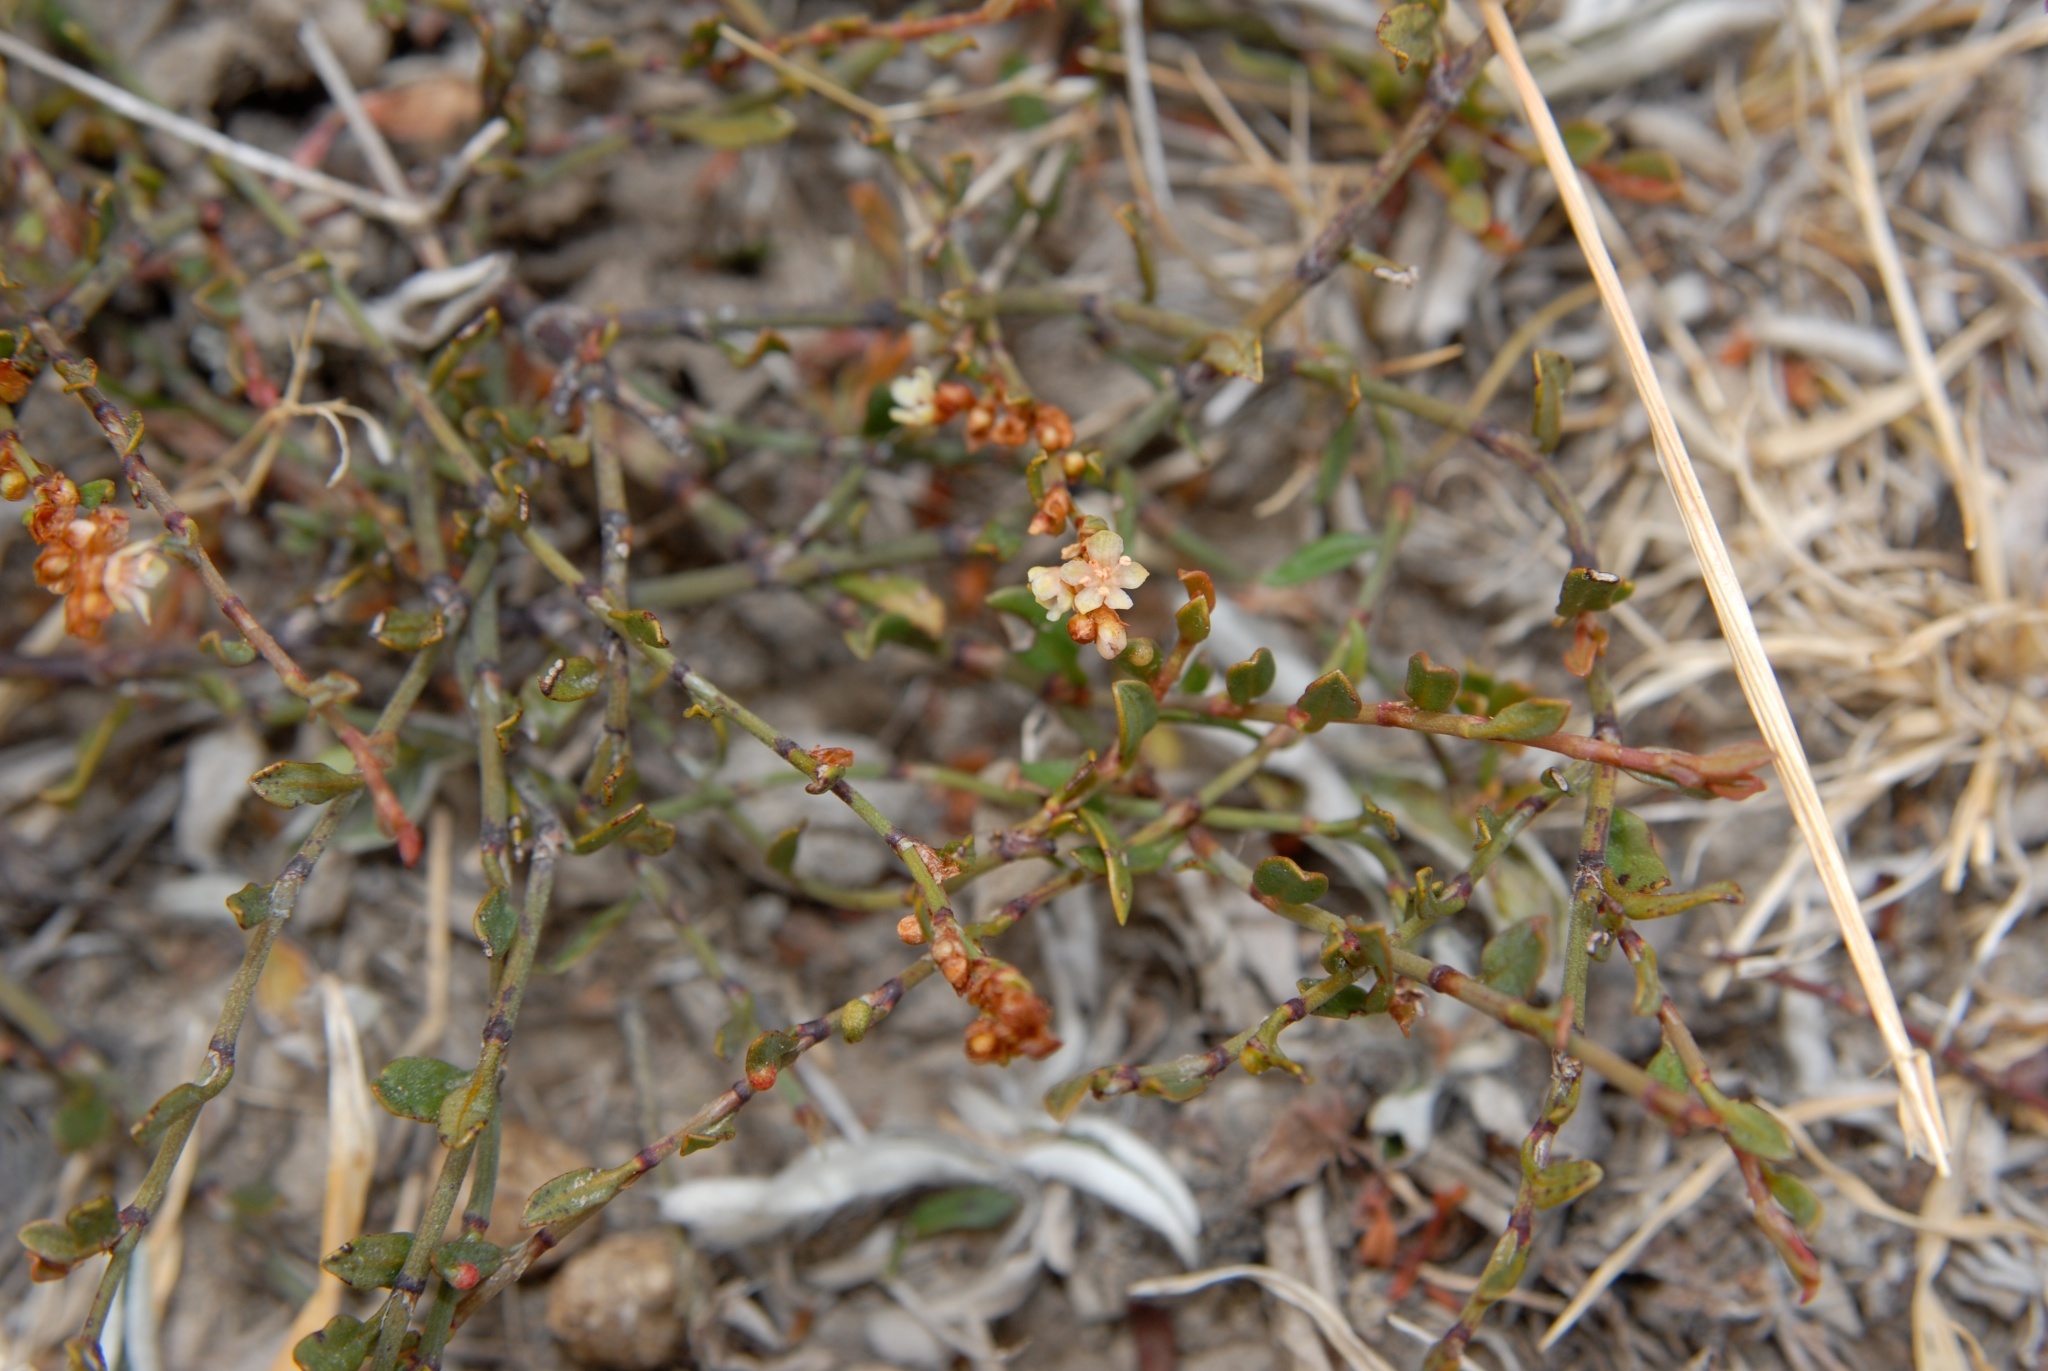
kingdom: Plantae
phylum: Tracheophyta
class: Magnoliopsida
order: Caryophyllales
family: Polygonaceae
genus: Muehlenbeckia
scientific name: Muehlenbeckia
